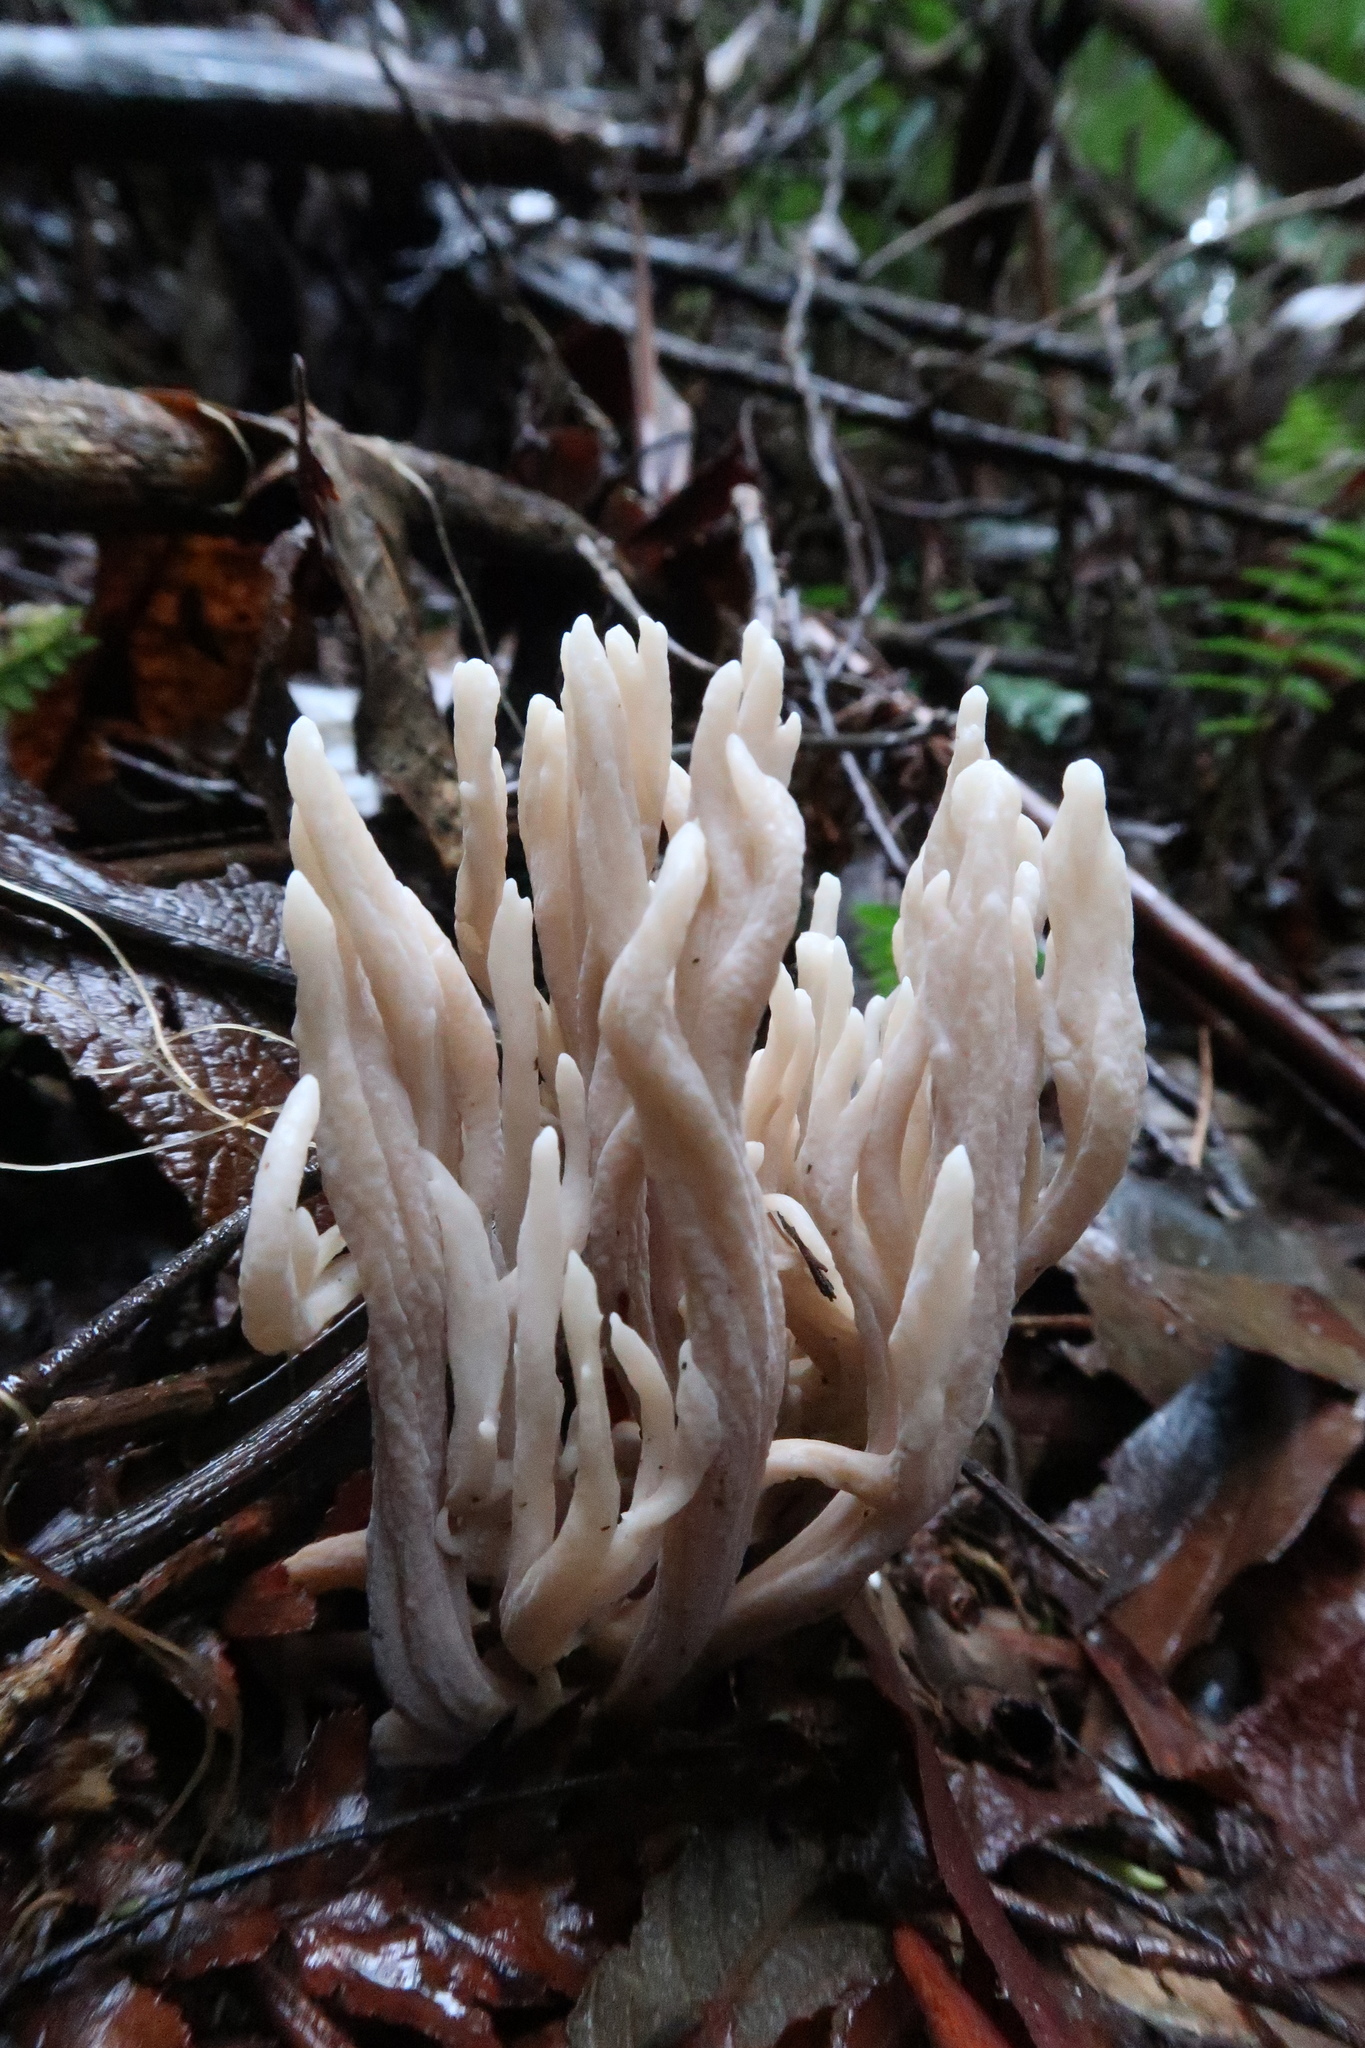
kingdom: Fungi
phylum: Basidiomycota
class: Agaricomycetes
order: Cantharellales
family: Hydnaceae
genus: Clavulina
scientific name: Clavulina subrugosa
